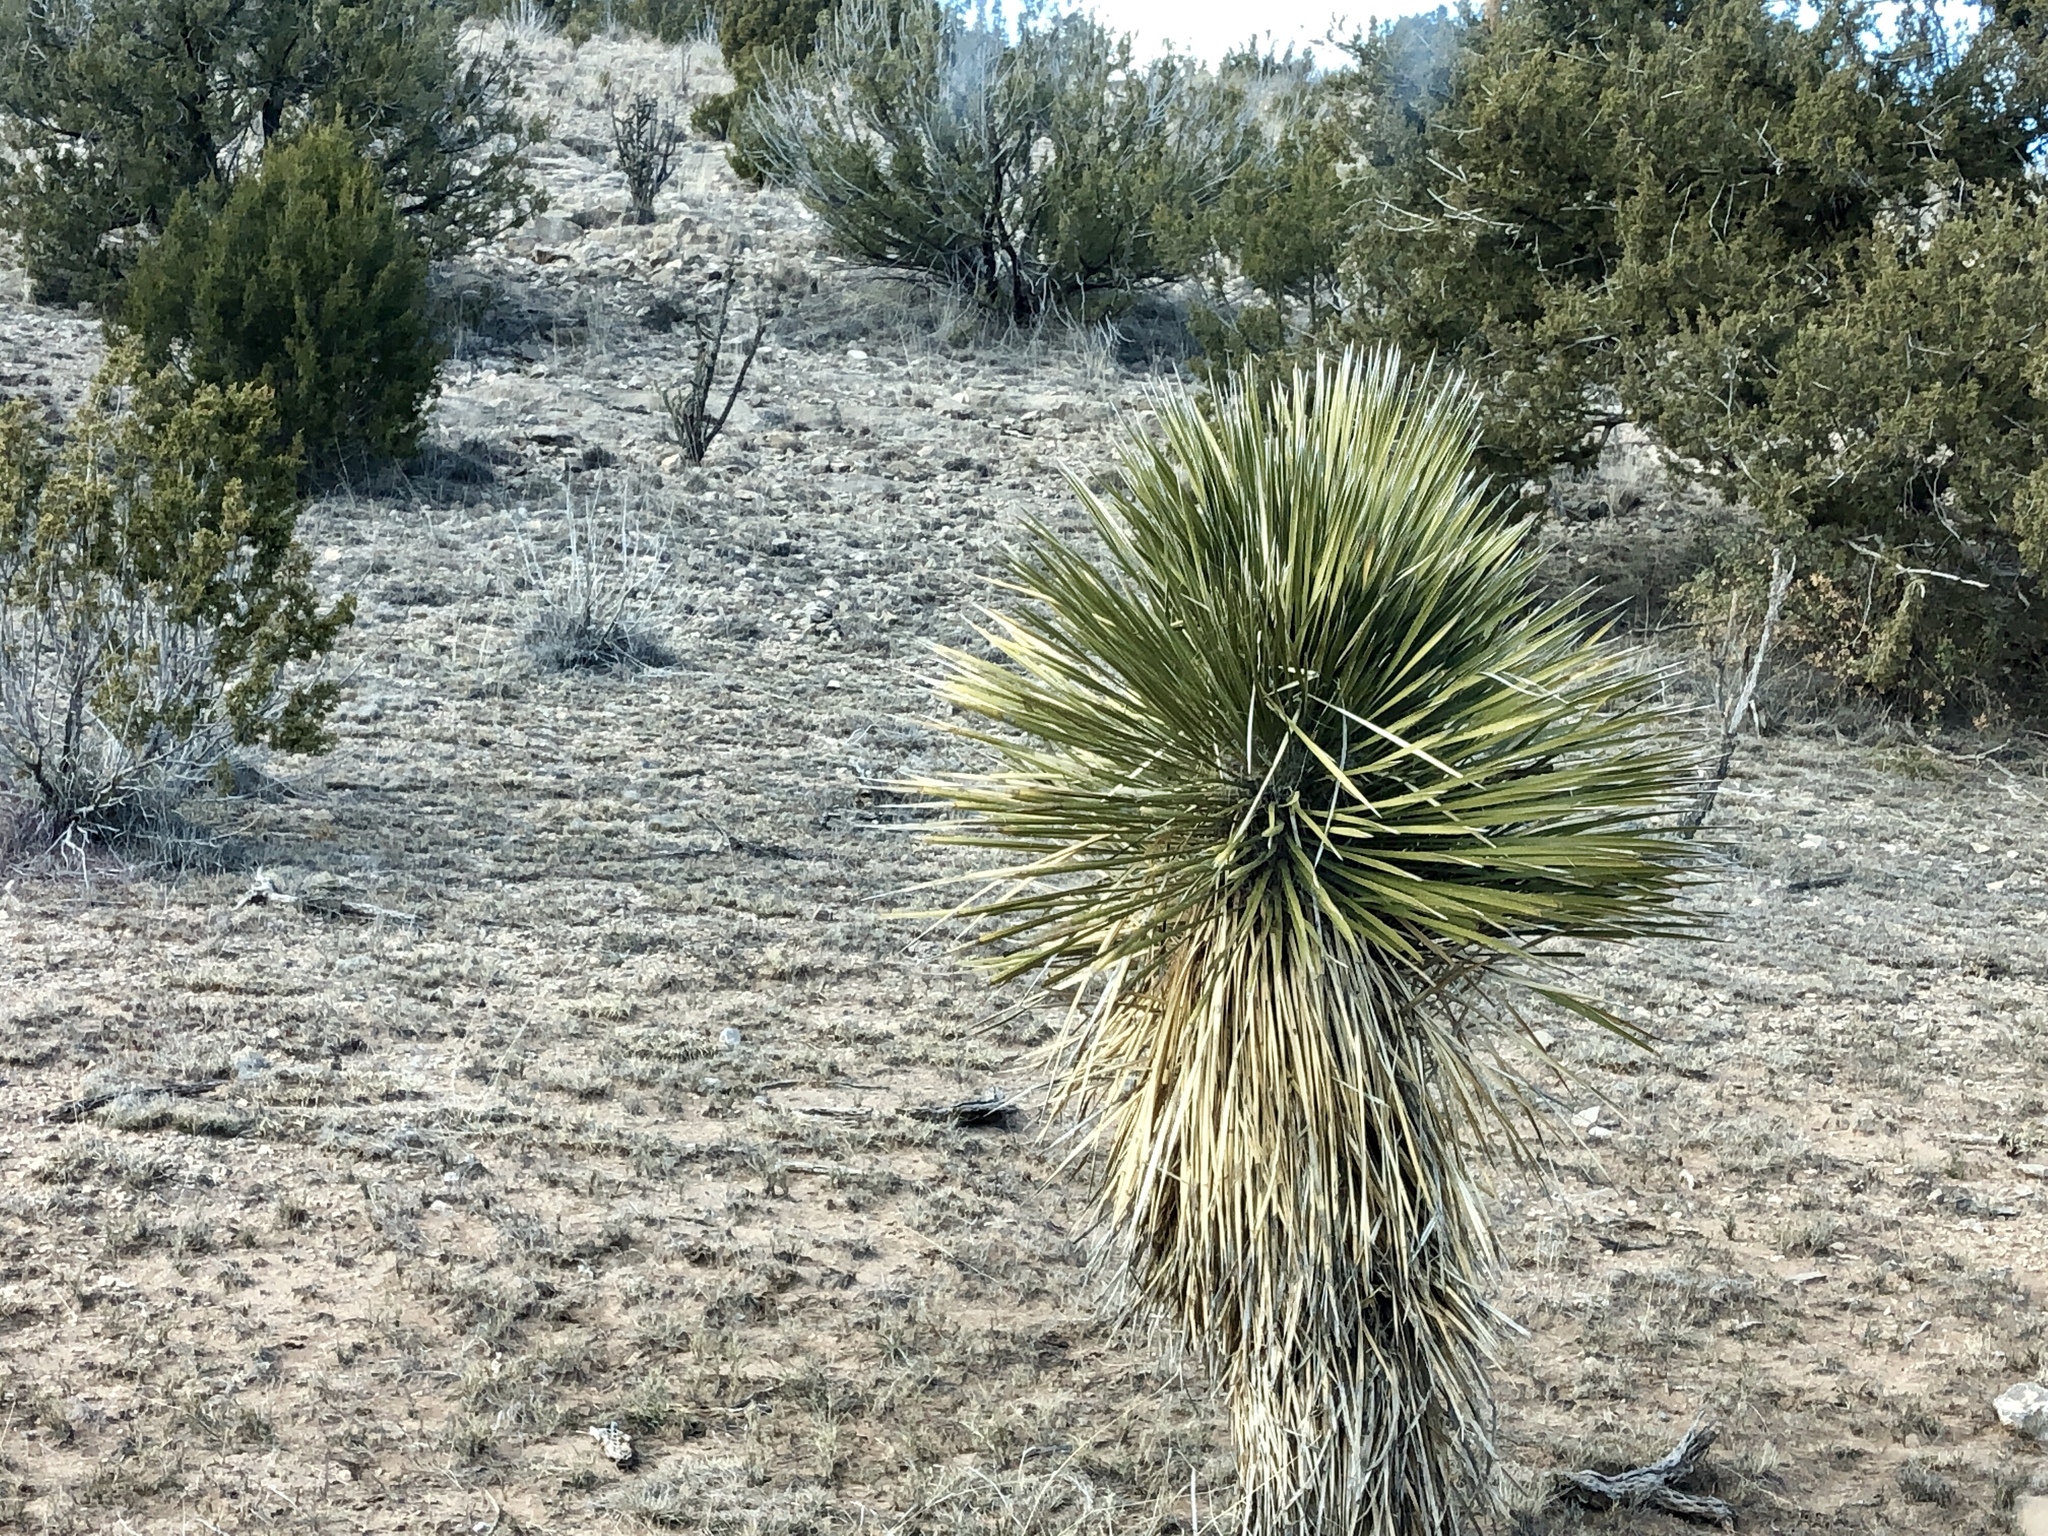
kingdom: Plantae
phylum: Tracheophyta
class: Liliopsida
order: Asparagales
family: Asparagaceae
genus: Yucca
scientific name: Yucca elata
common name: Palmella
